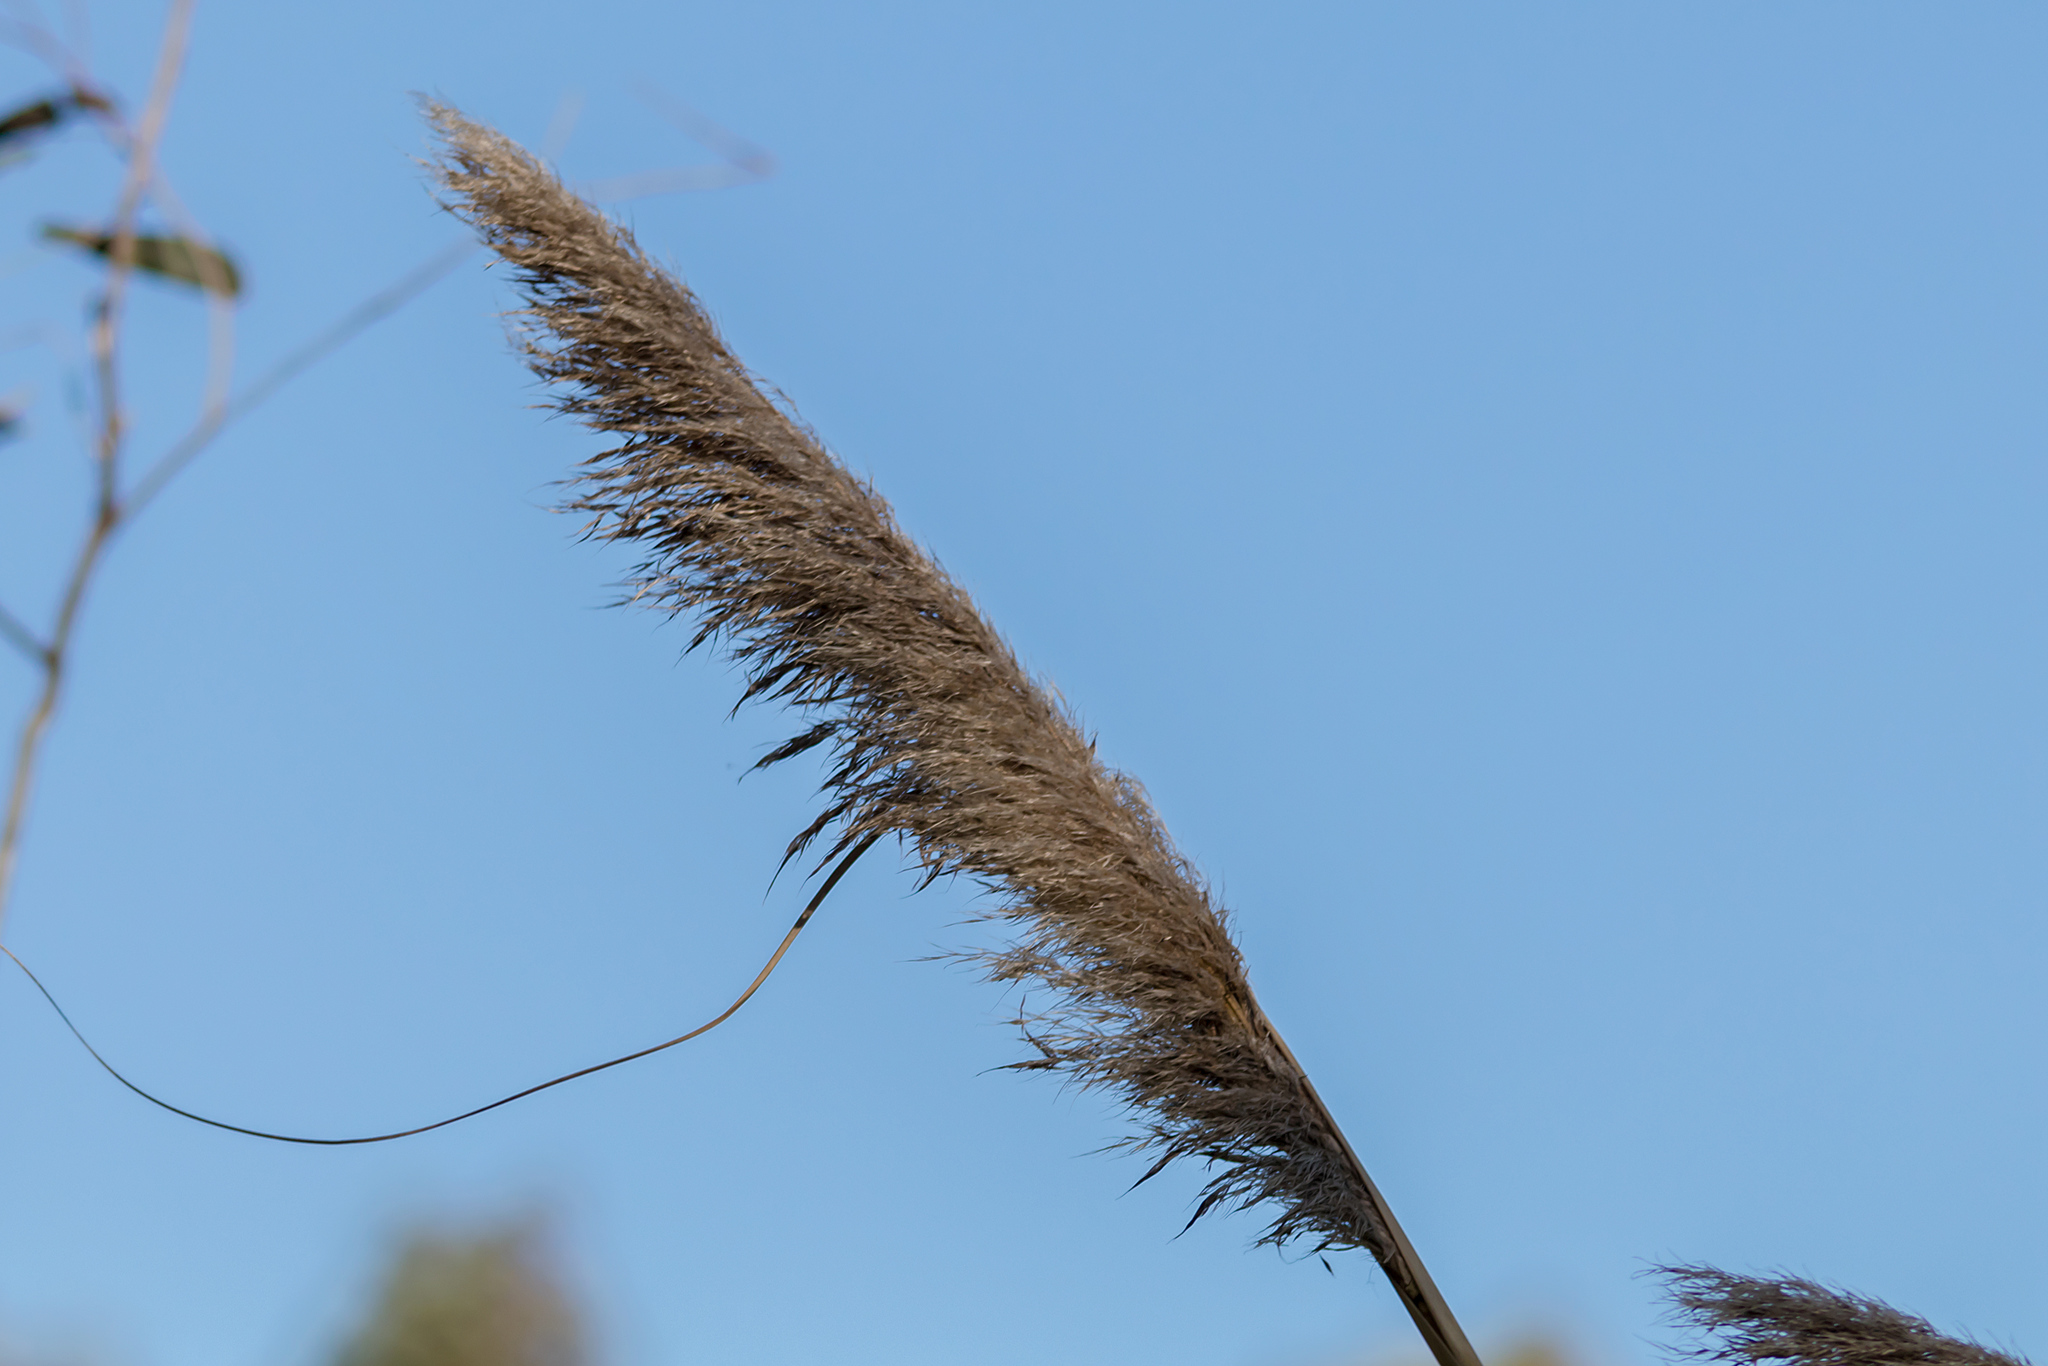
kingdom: Plantae
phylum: Tracheophyta
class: Liliopsida
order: Poales
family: Poaceae
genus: Cortaderia
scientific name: Cortaderia selloana
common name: Uruguayan pampas grass
